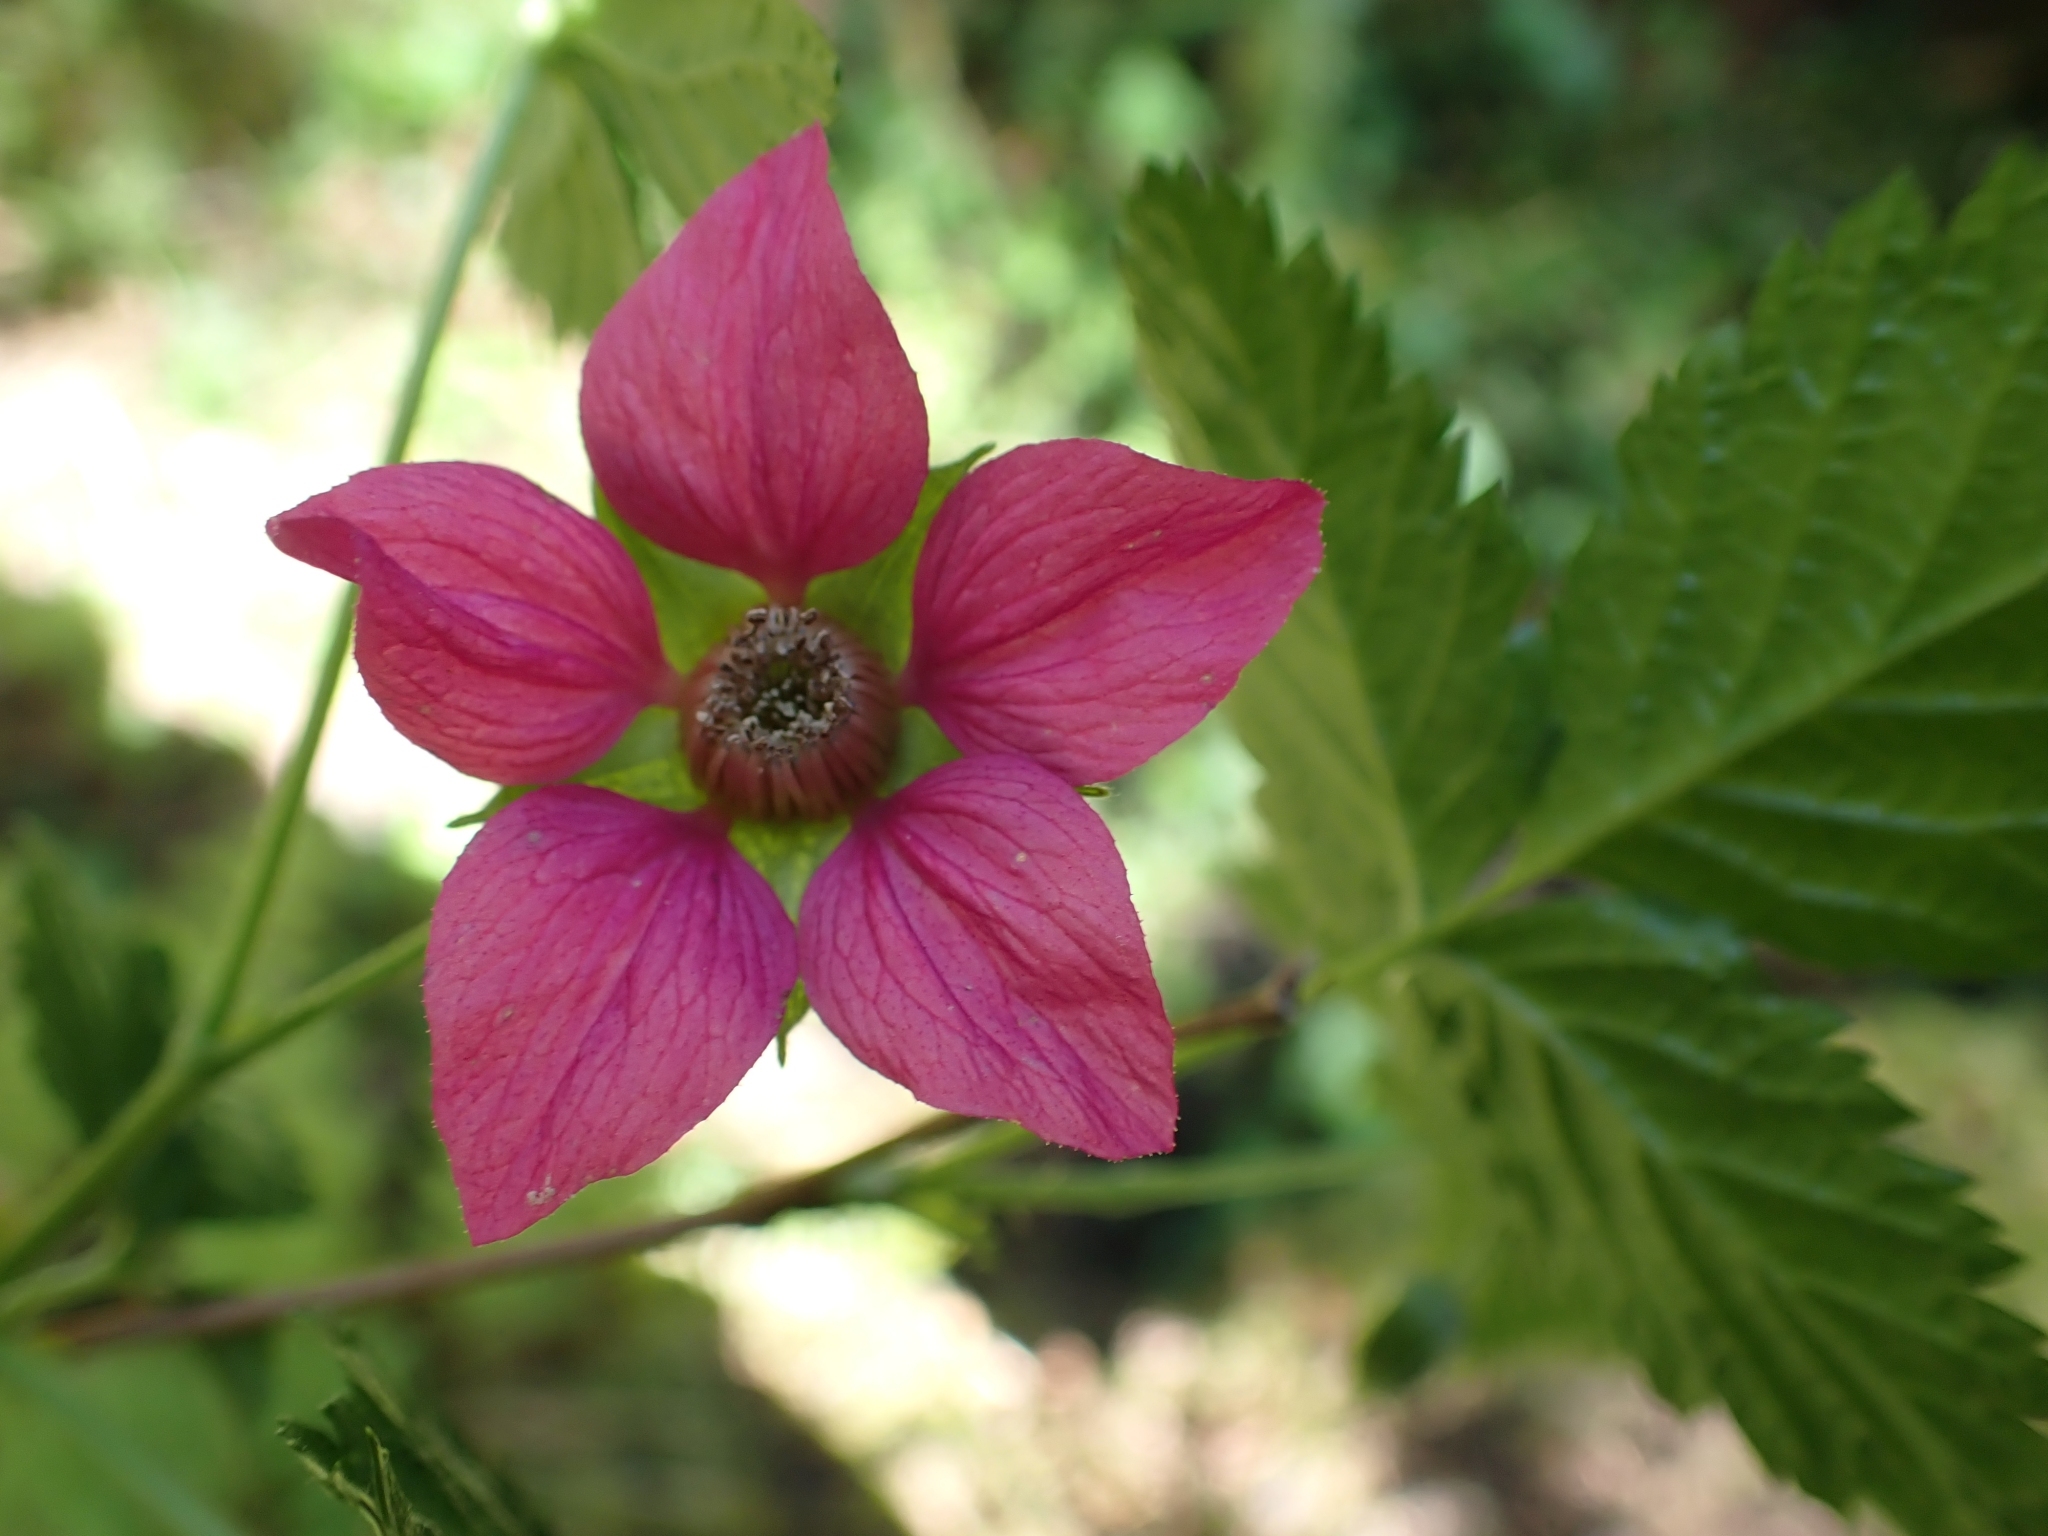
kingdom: Plantae
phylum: Tracheophyta
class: Magnoliopsida
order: Rosales
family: Rosaceae
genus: Rubus
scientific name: Rubus spectabilis
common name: Salmonberry
